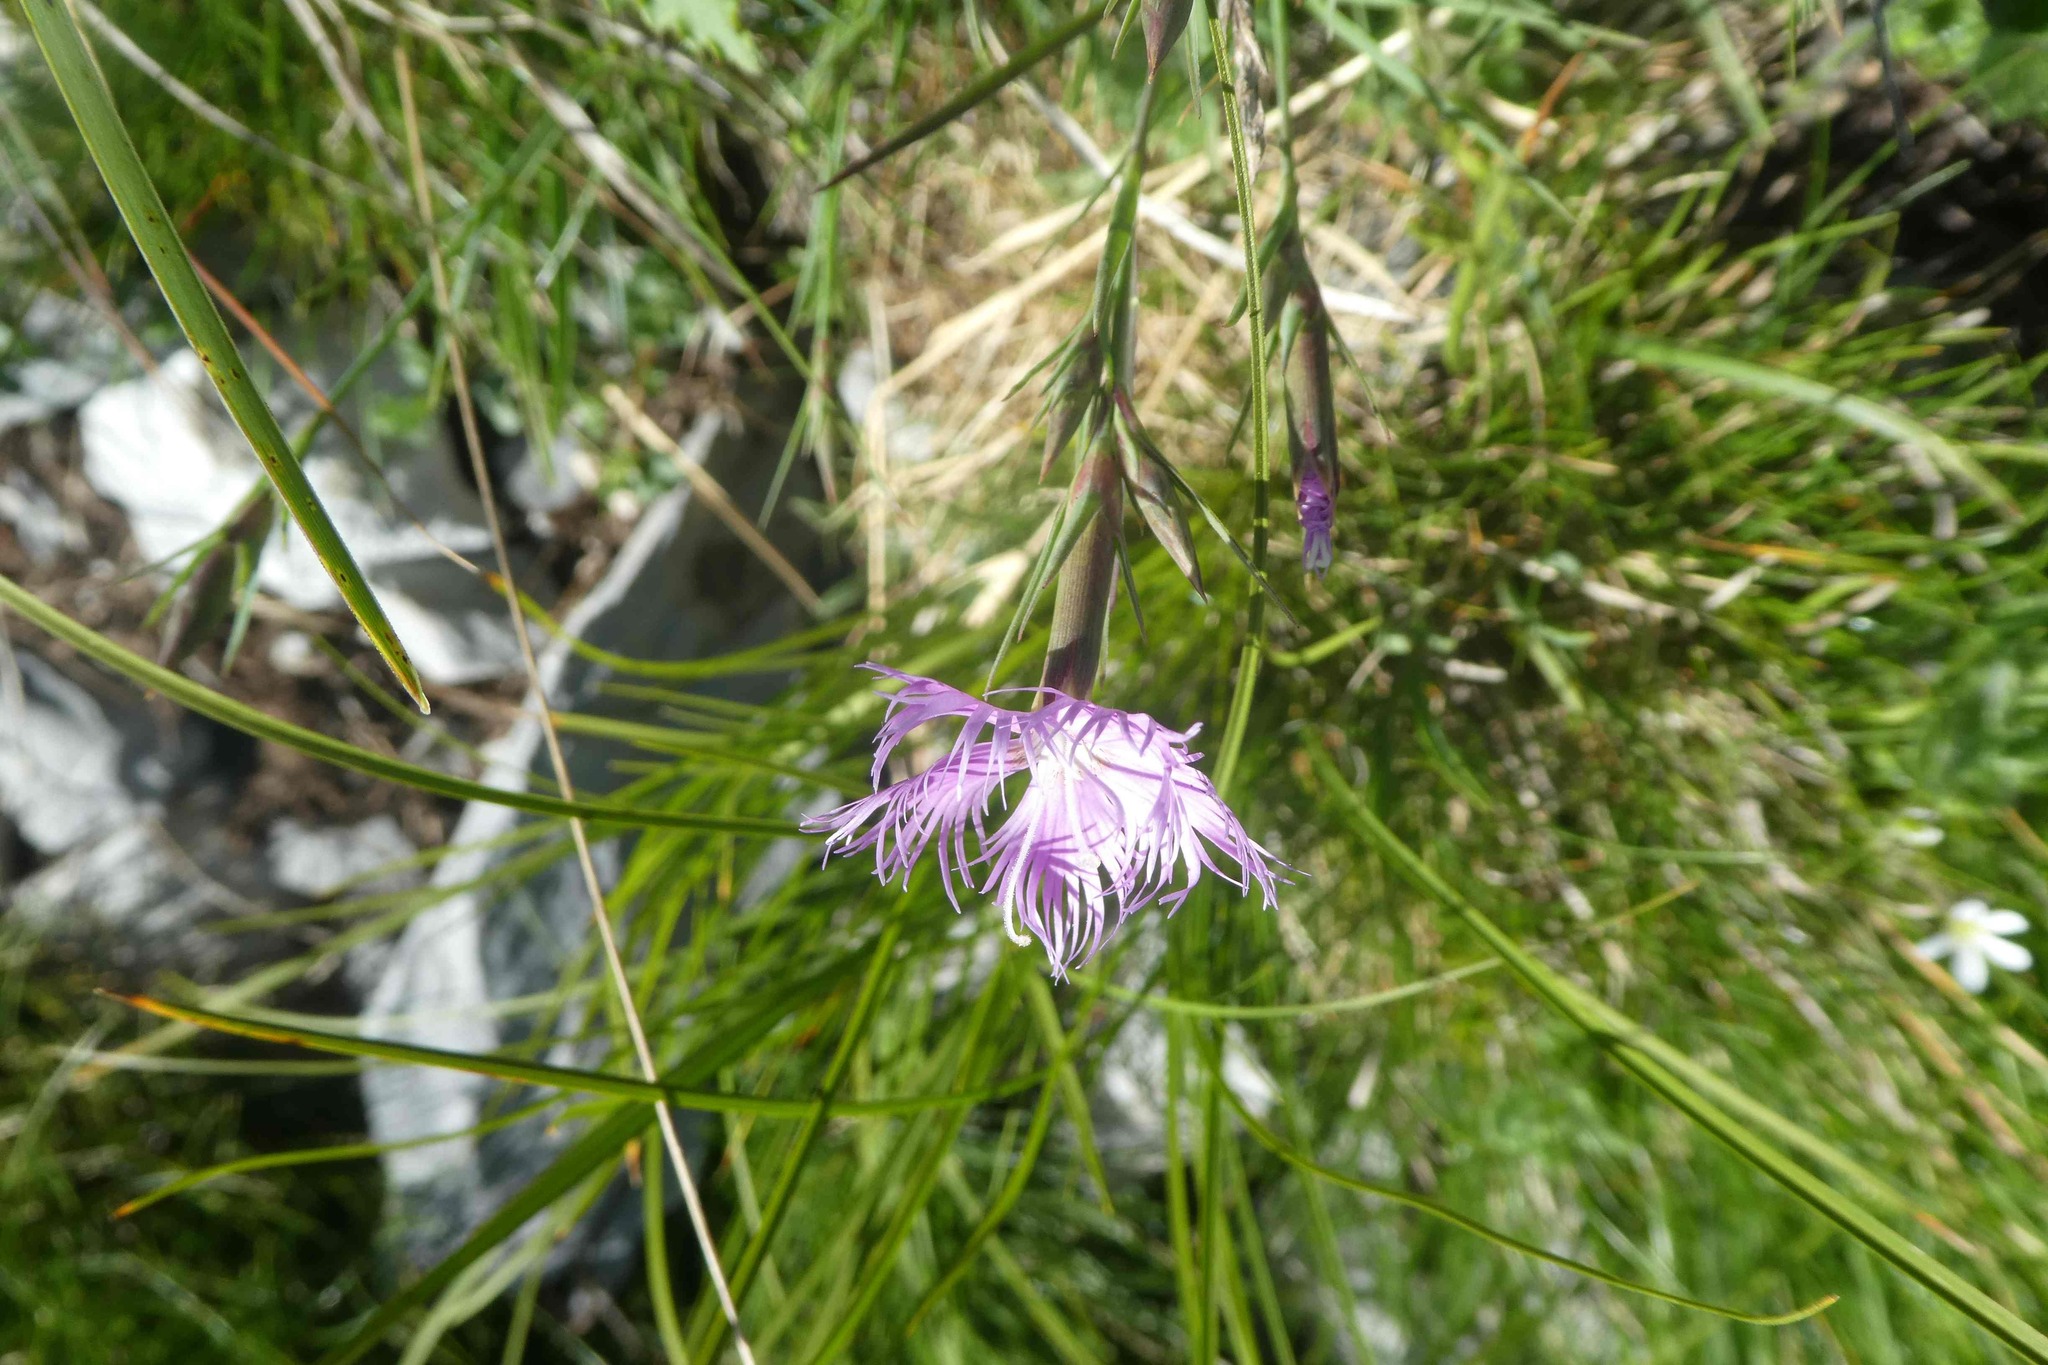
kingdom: Plantae
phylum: Tracheophyta
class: Magnoliopsida
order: Caryophyllales
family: Caryophyllaceae
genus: Dianthus
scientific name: Dianthus hyssopifolius
